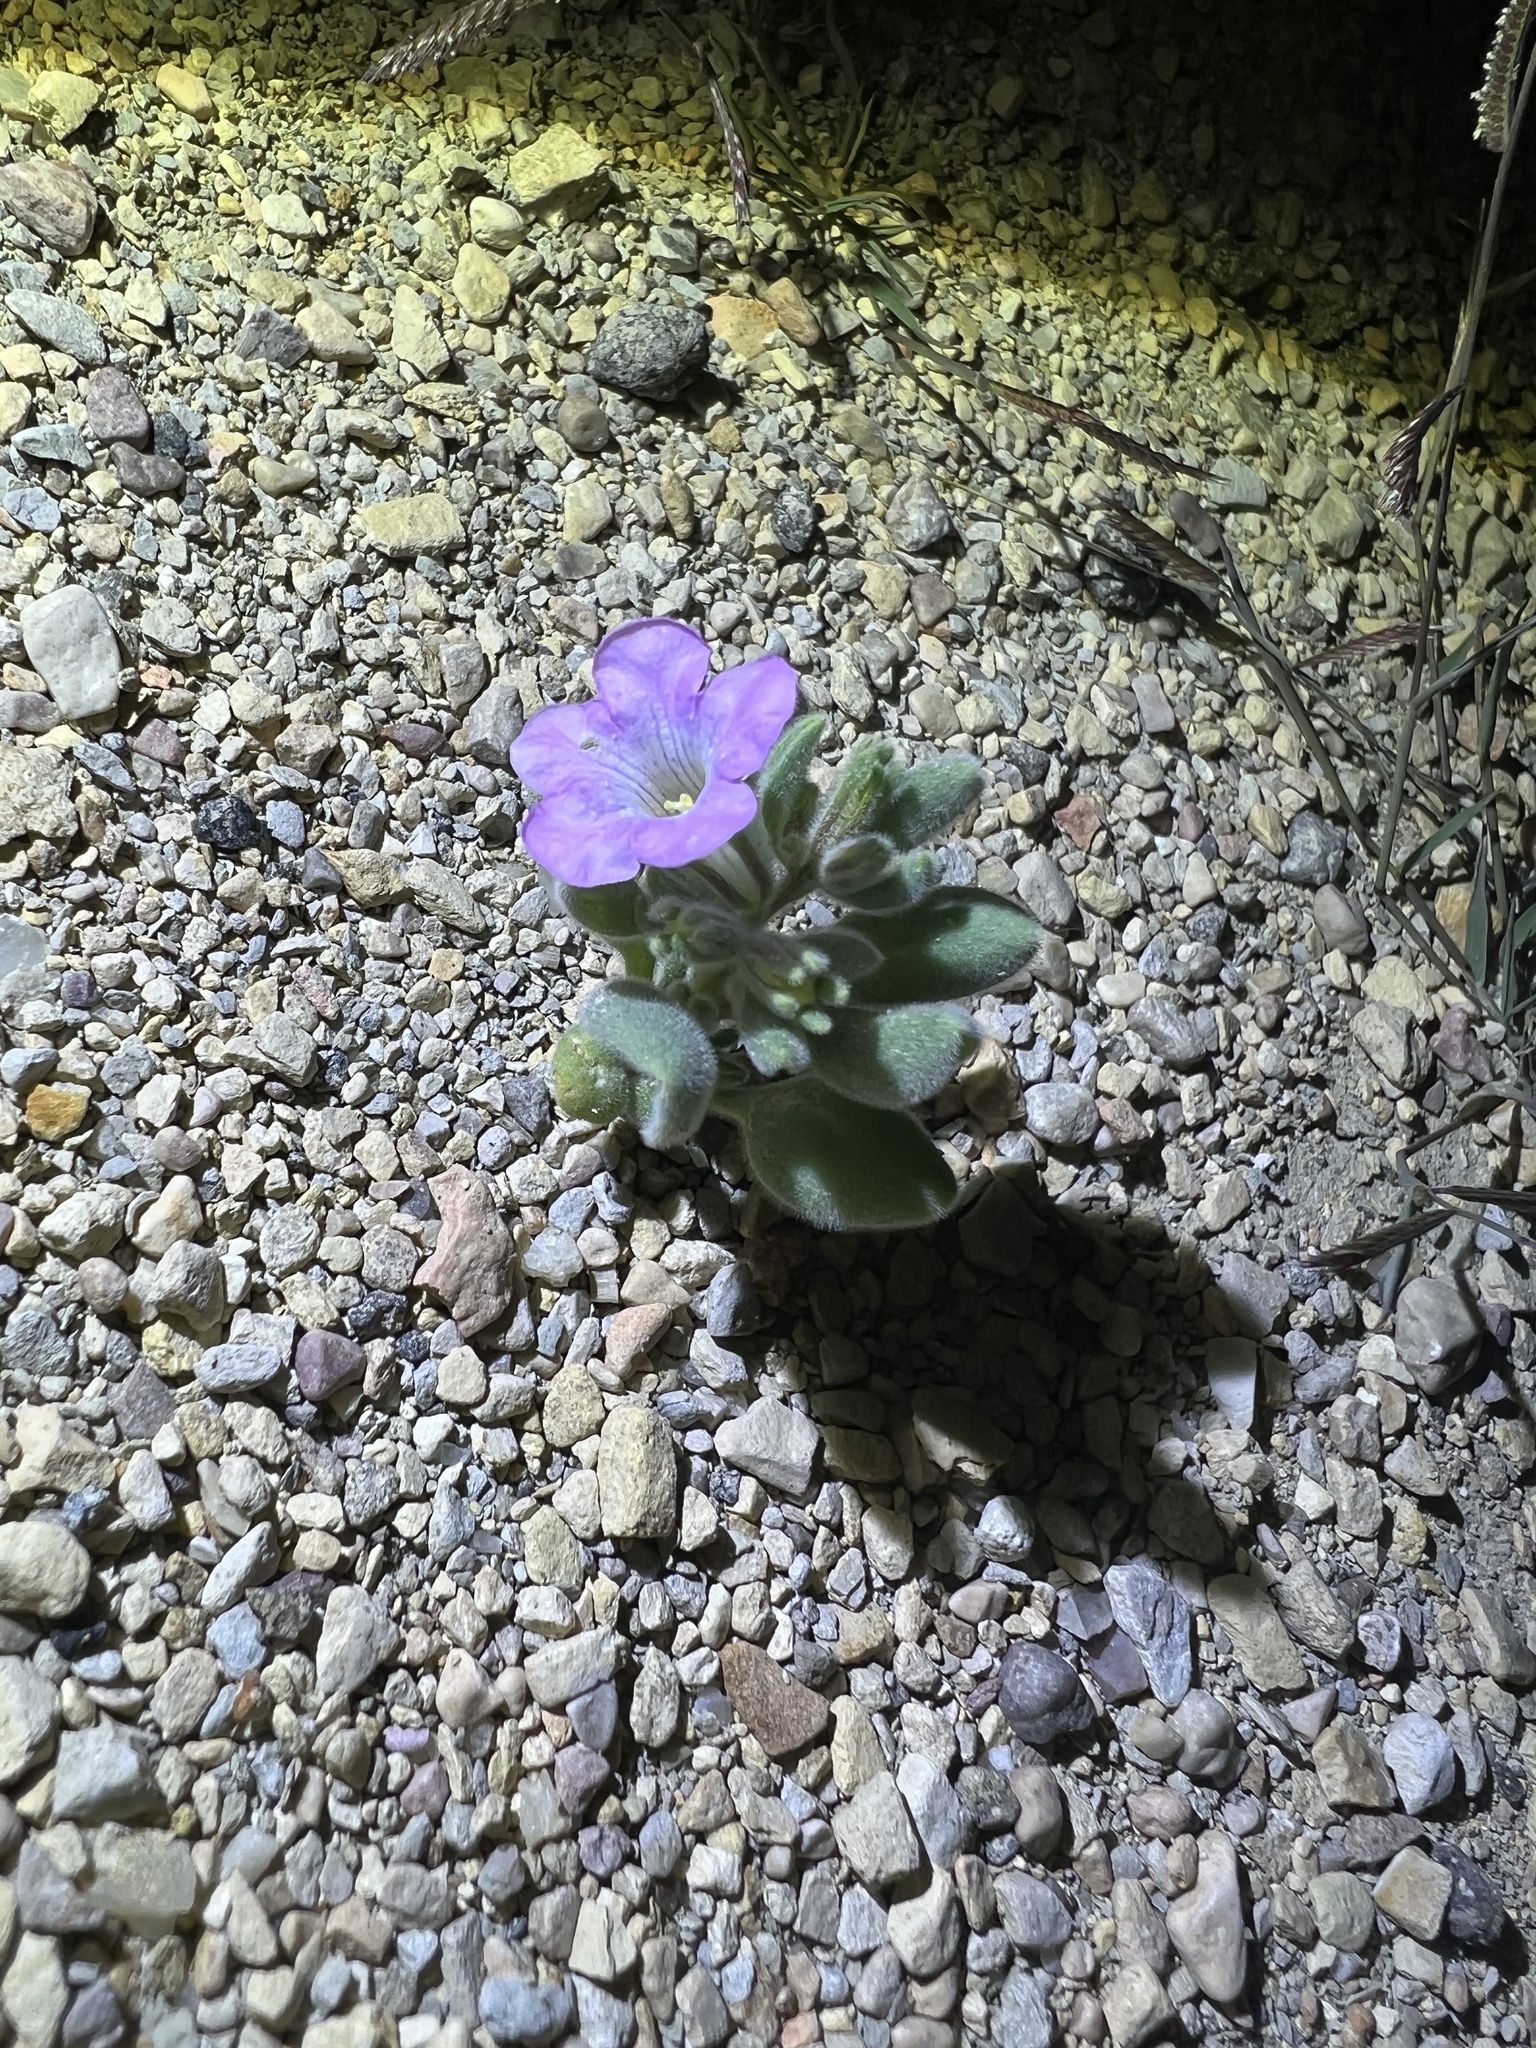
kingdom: Plantae
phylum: Tracheophyta
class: Magnoliopsida
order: Boraginales
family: Namaceae
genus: Nama
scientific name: Nama havardii
